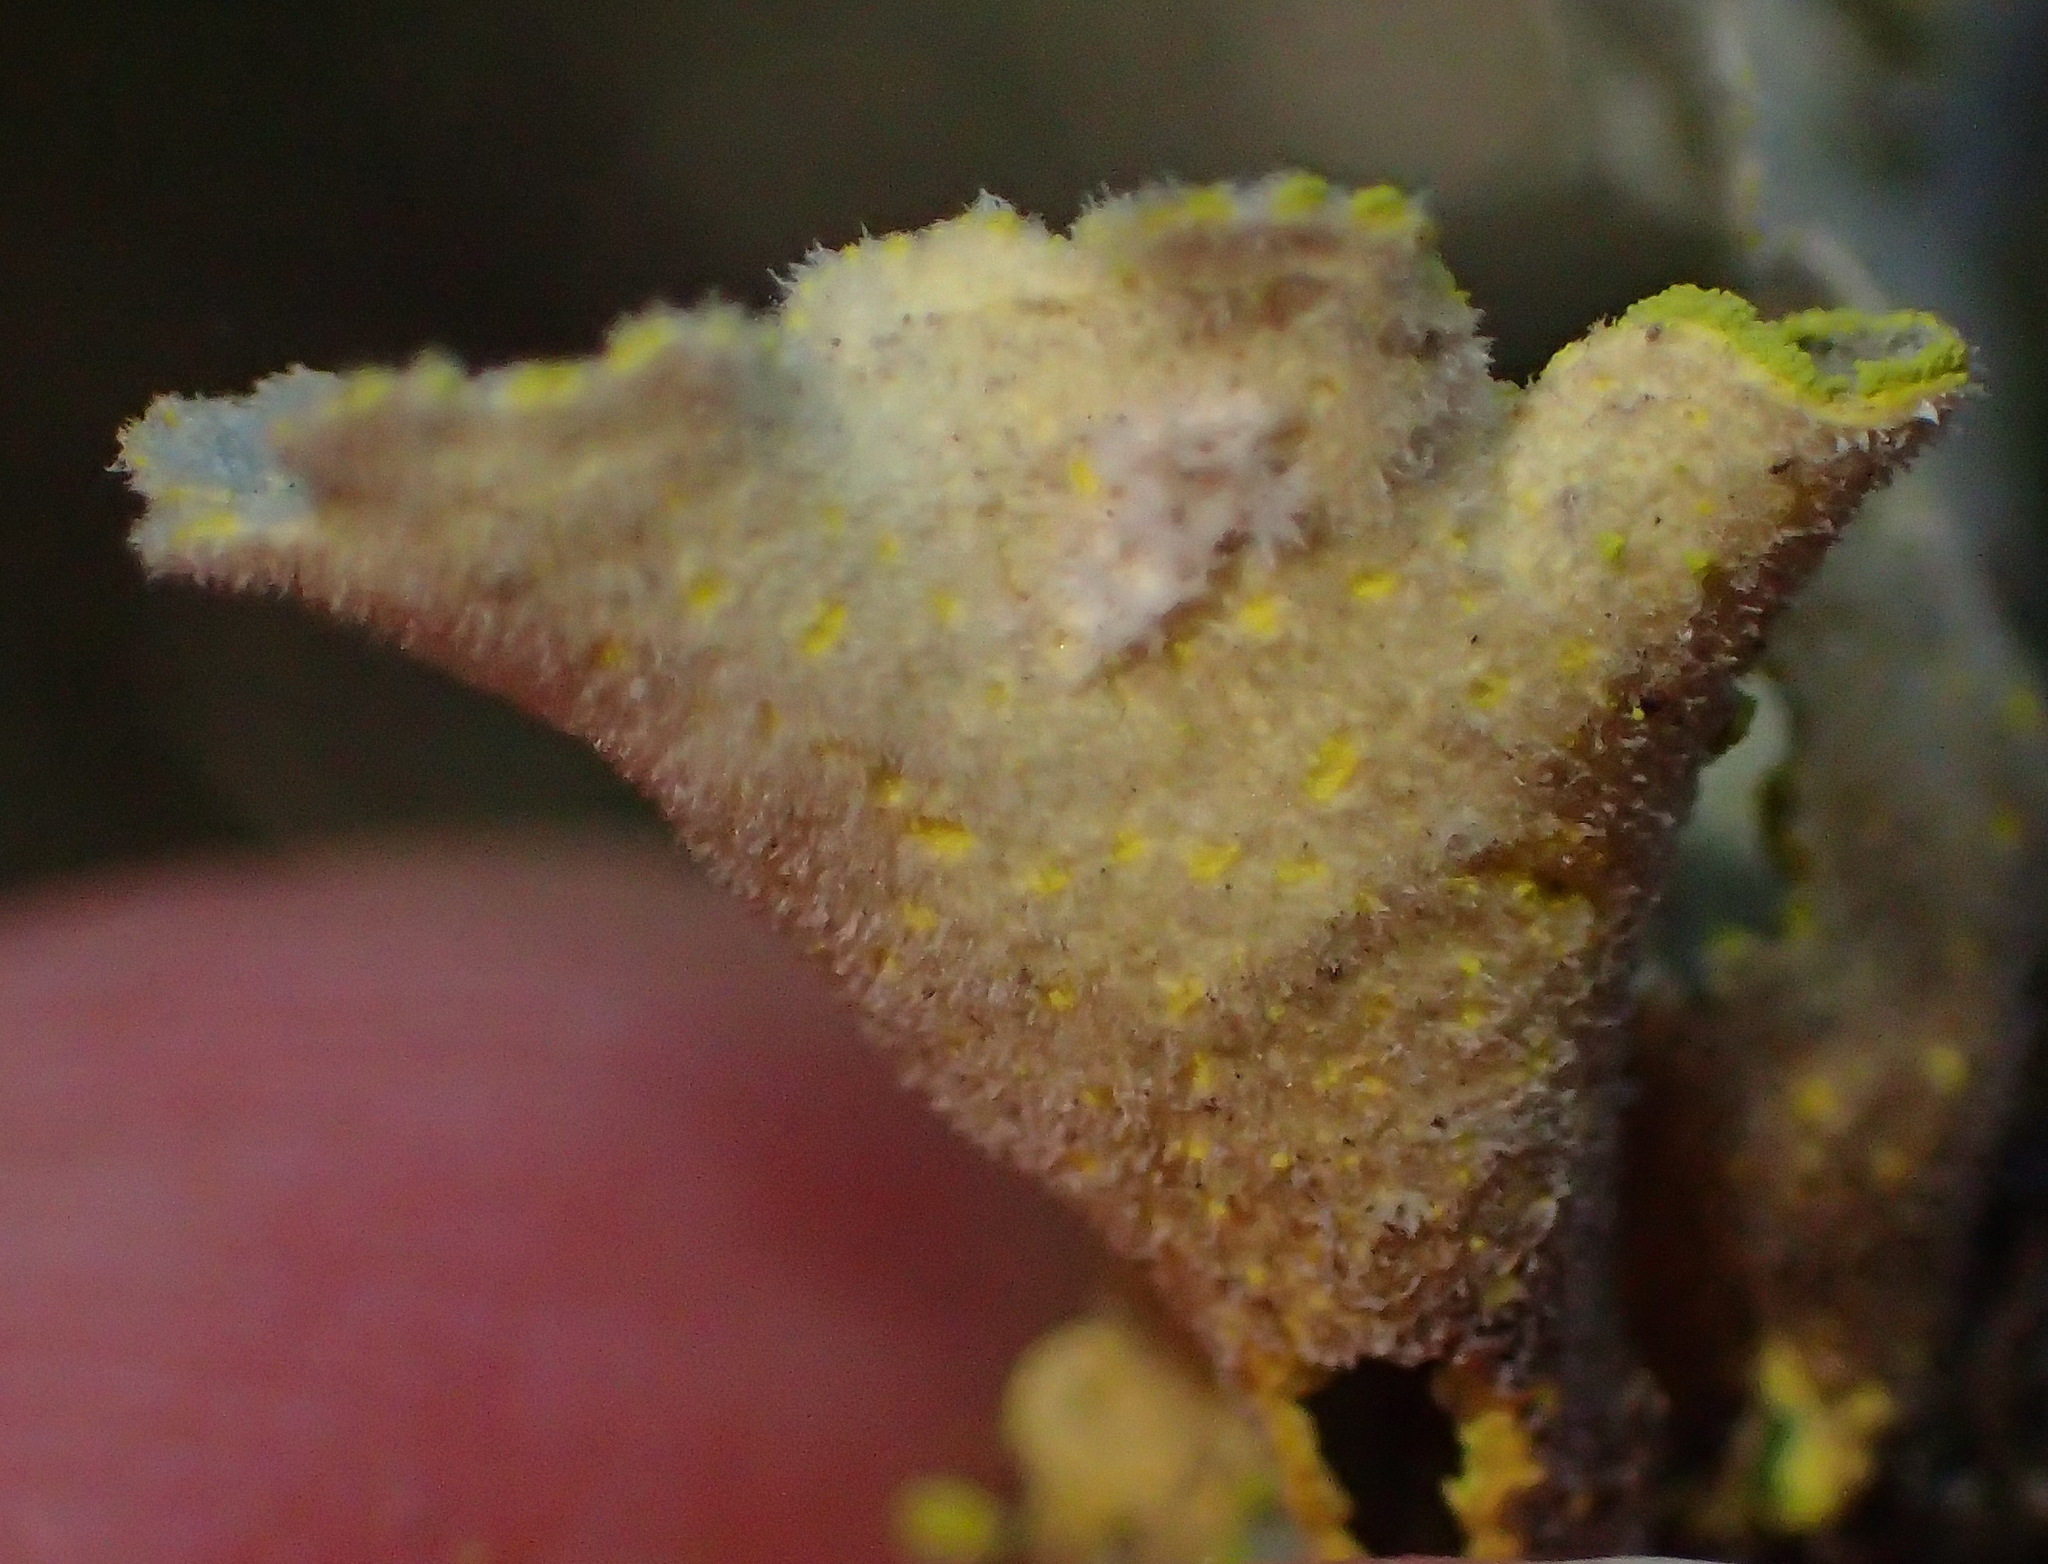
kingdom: Fungi
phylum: Ascomycota
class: Lecanoromycetes
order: Peltigerales
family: Lobariaceae
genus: Pseudocyphellaria
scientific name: Pseudocyphellaria aurata
